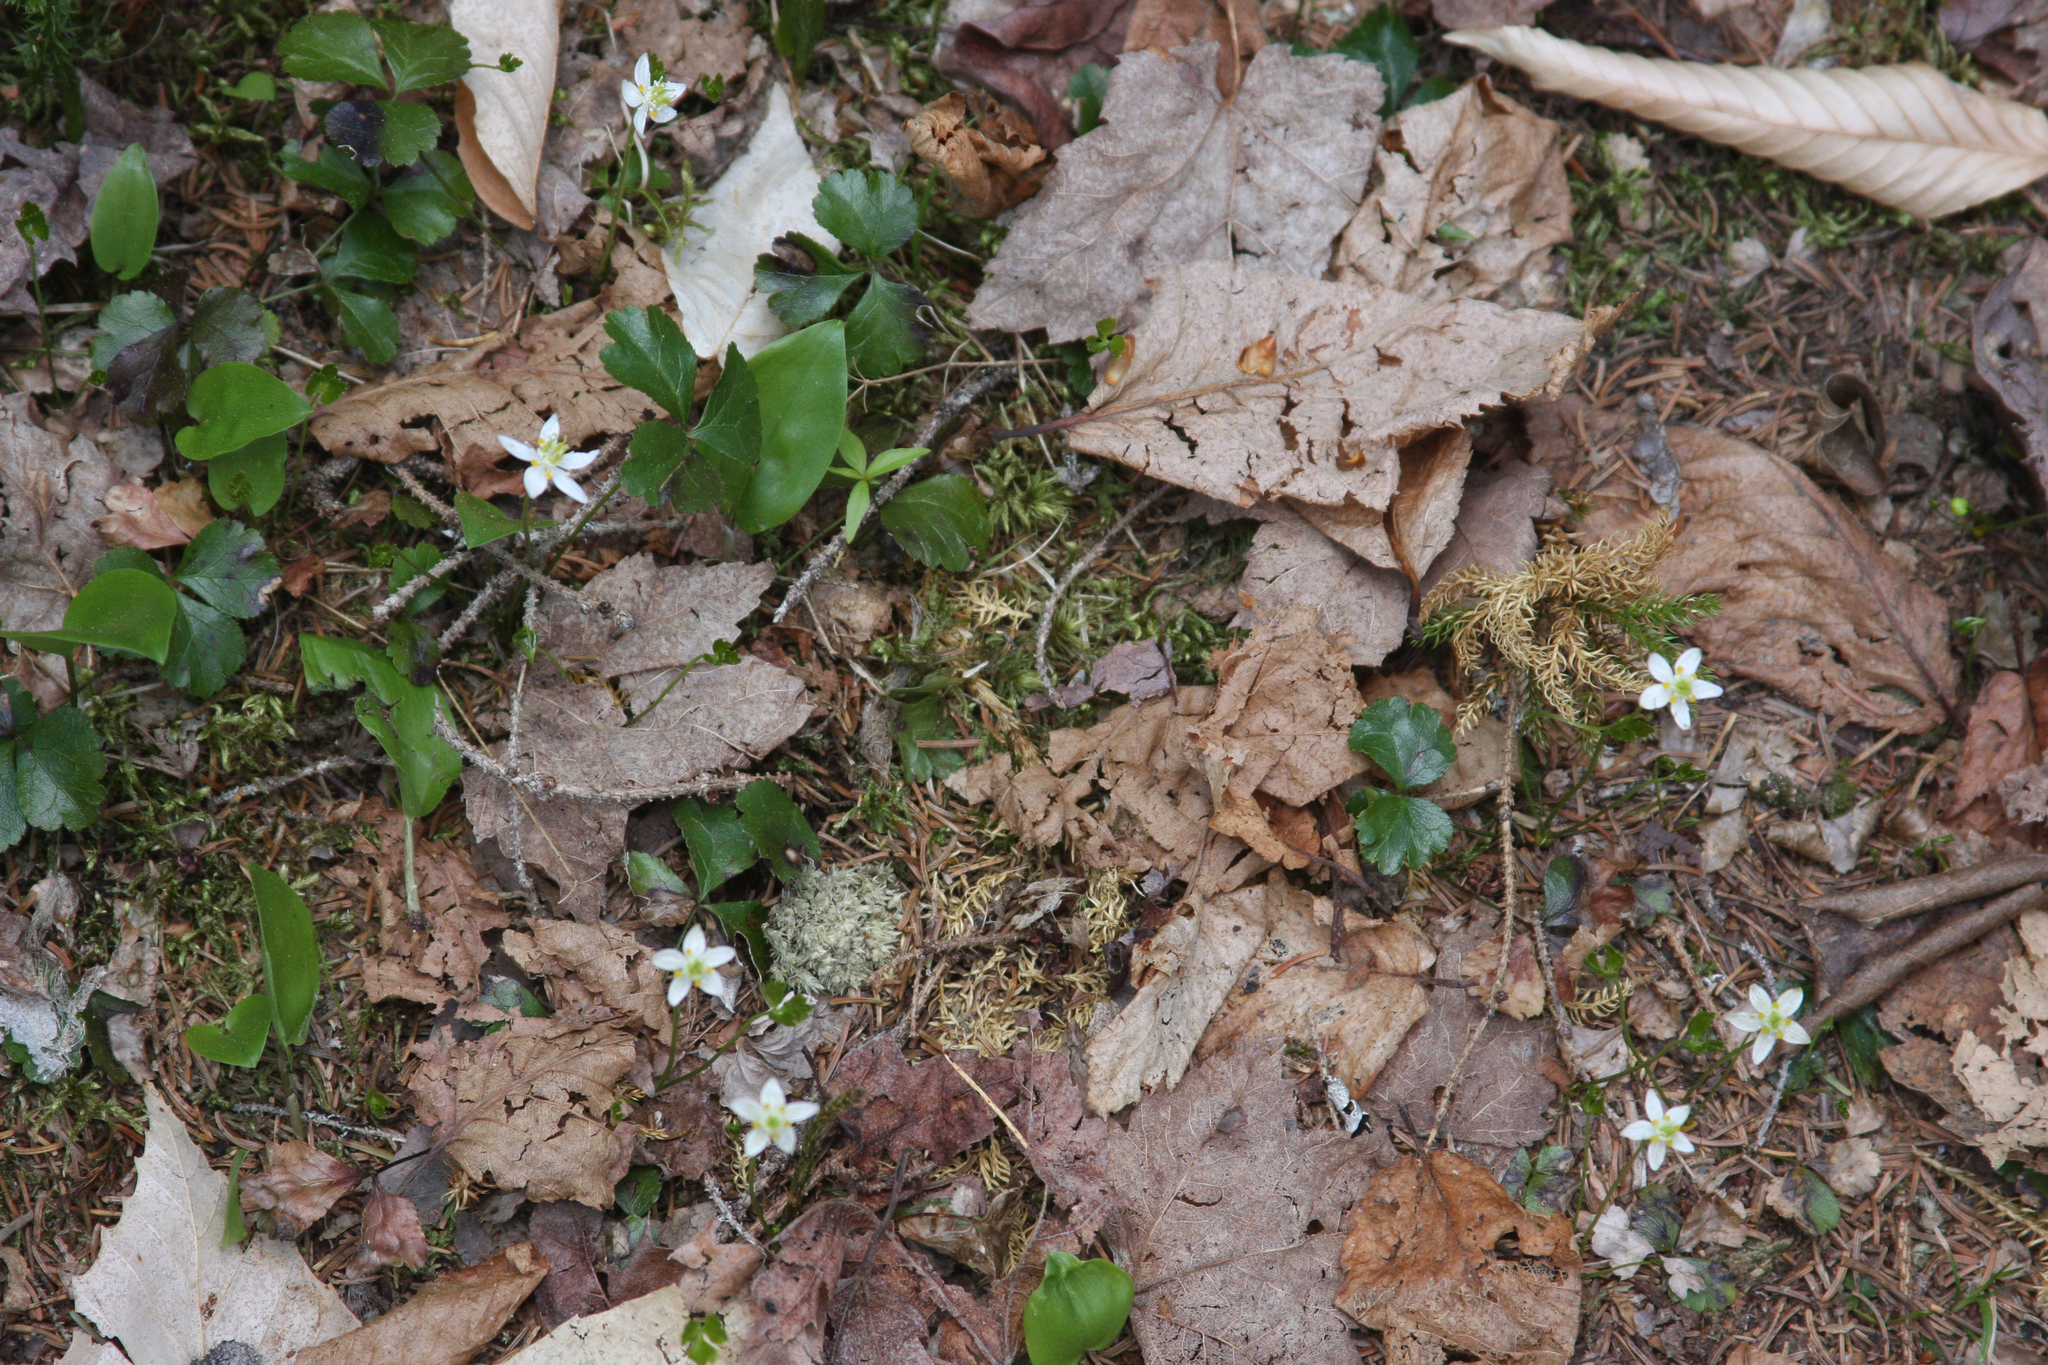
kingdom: Plantae
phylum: Tracheophyta
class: Liliopsida
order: Asparagales
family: Asparagaceae
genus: Maianthemum
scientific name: Maianthemum canadense
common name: False lily-of-the-valley
